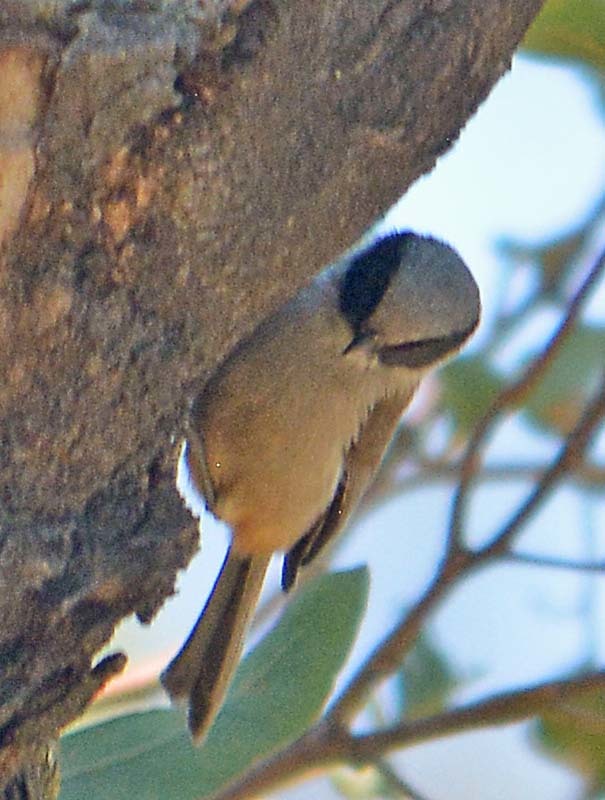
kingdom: Animalia
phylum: Chordata
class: Aves
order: Passeriformes
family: Aegithalidae
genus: Psaltriparus
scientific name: Psaltriparus minimus
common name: American bushtit
